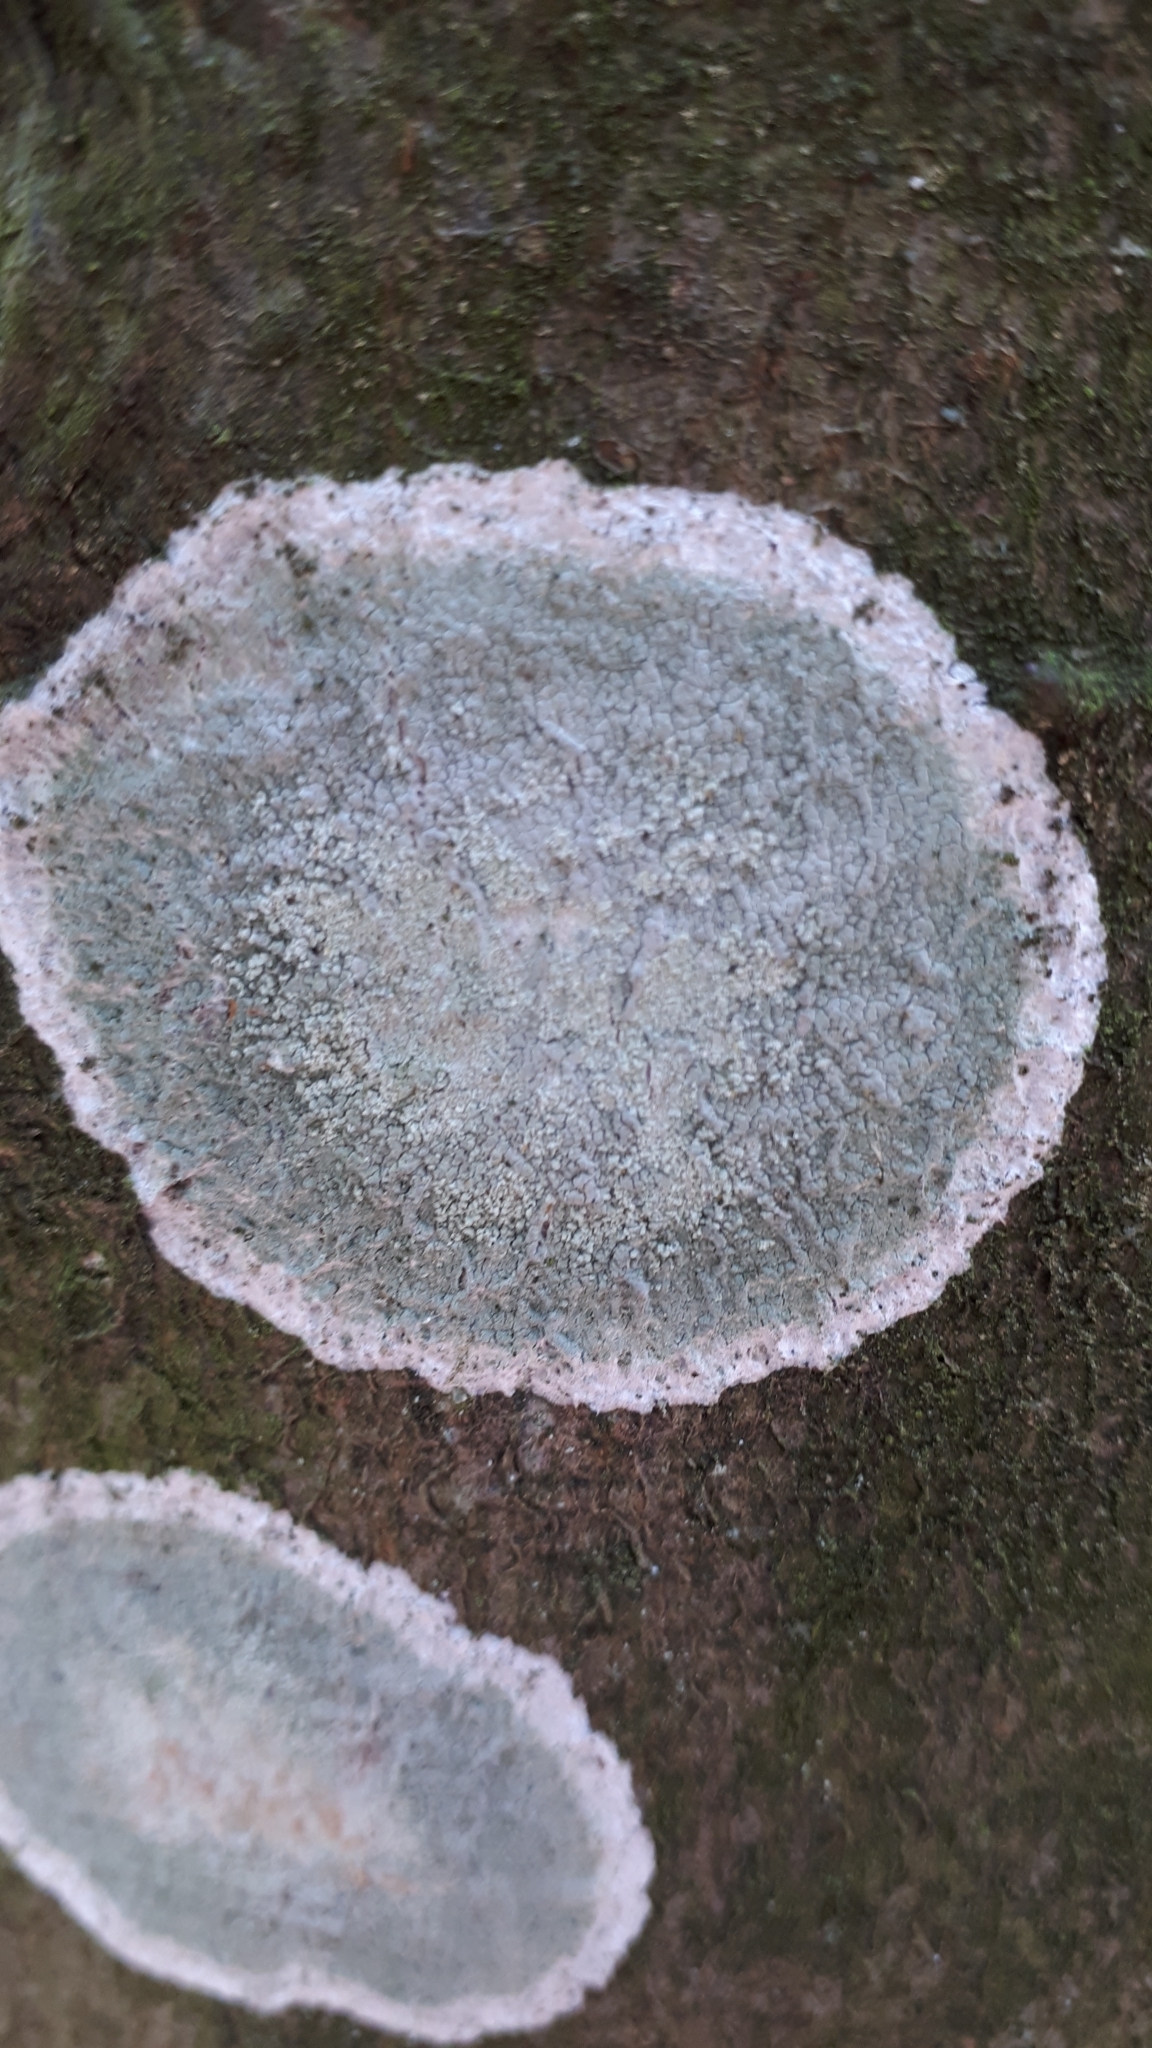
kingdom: Fungi
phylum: Ascomycota
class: Lecanoromycetes
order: Ostropales
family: Phlyctidaceae
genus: Phlyctis
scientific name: Phlyctis argena
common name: Whitewash lichen
